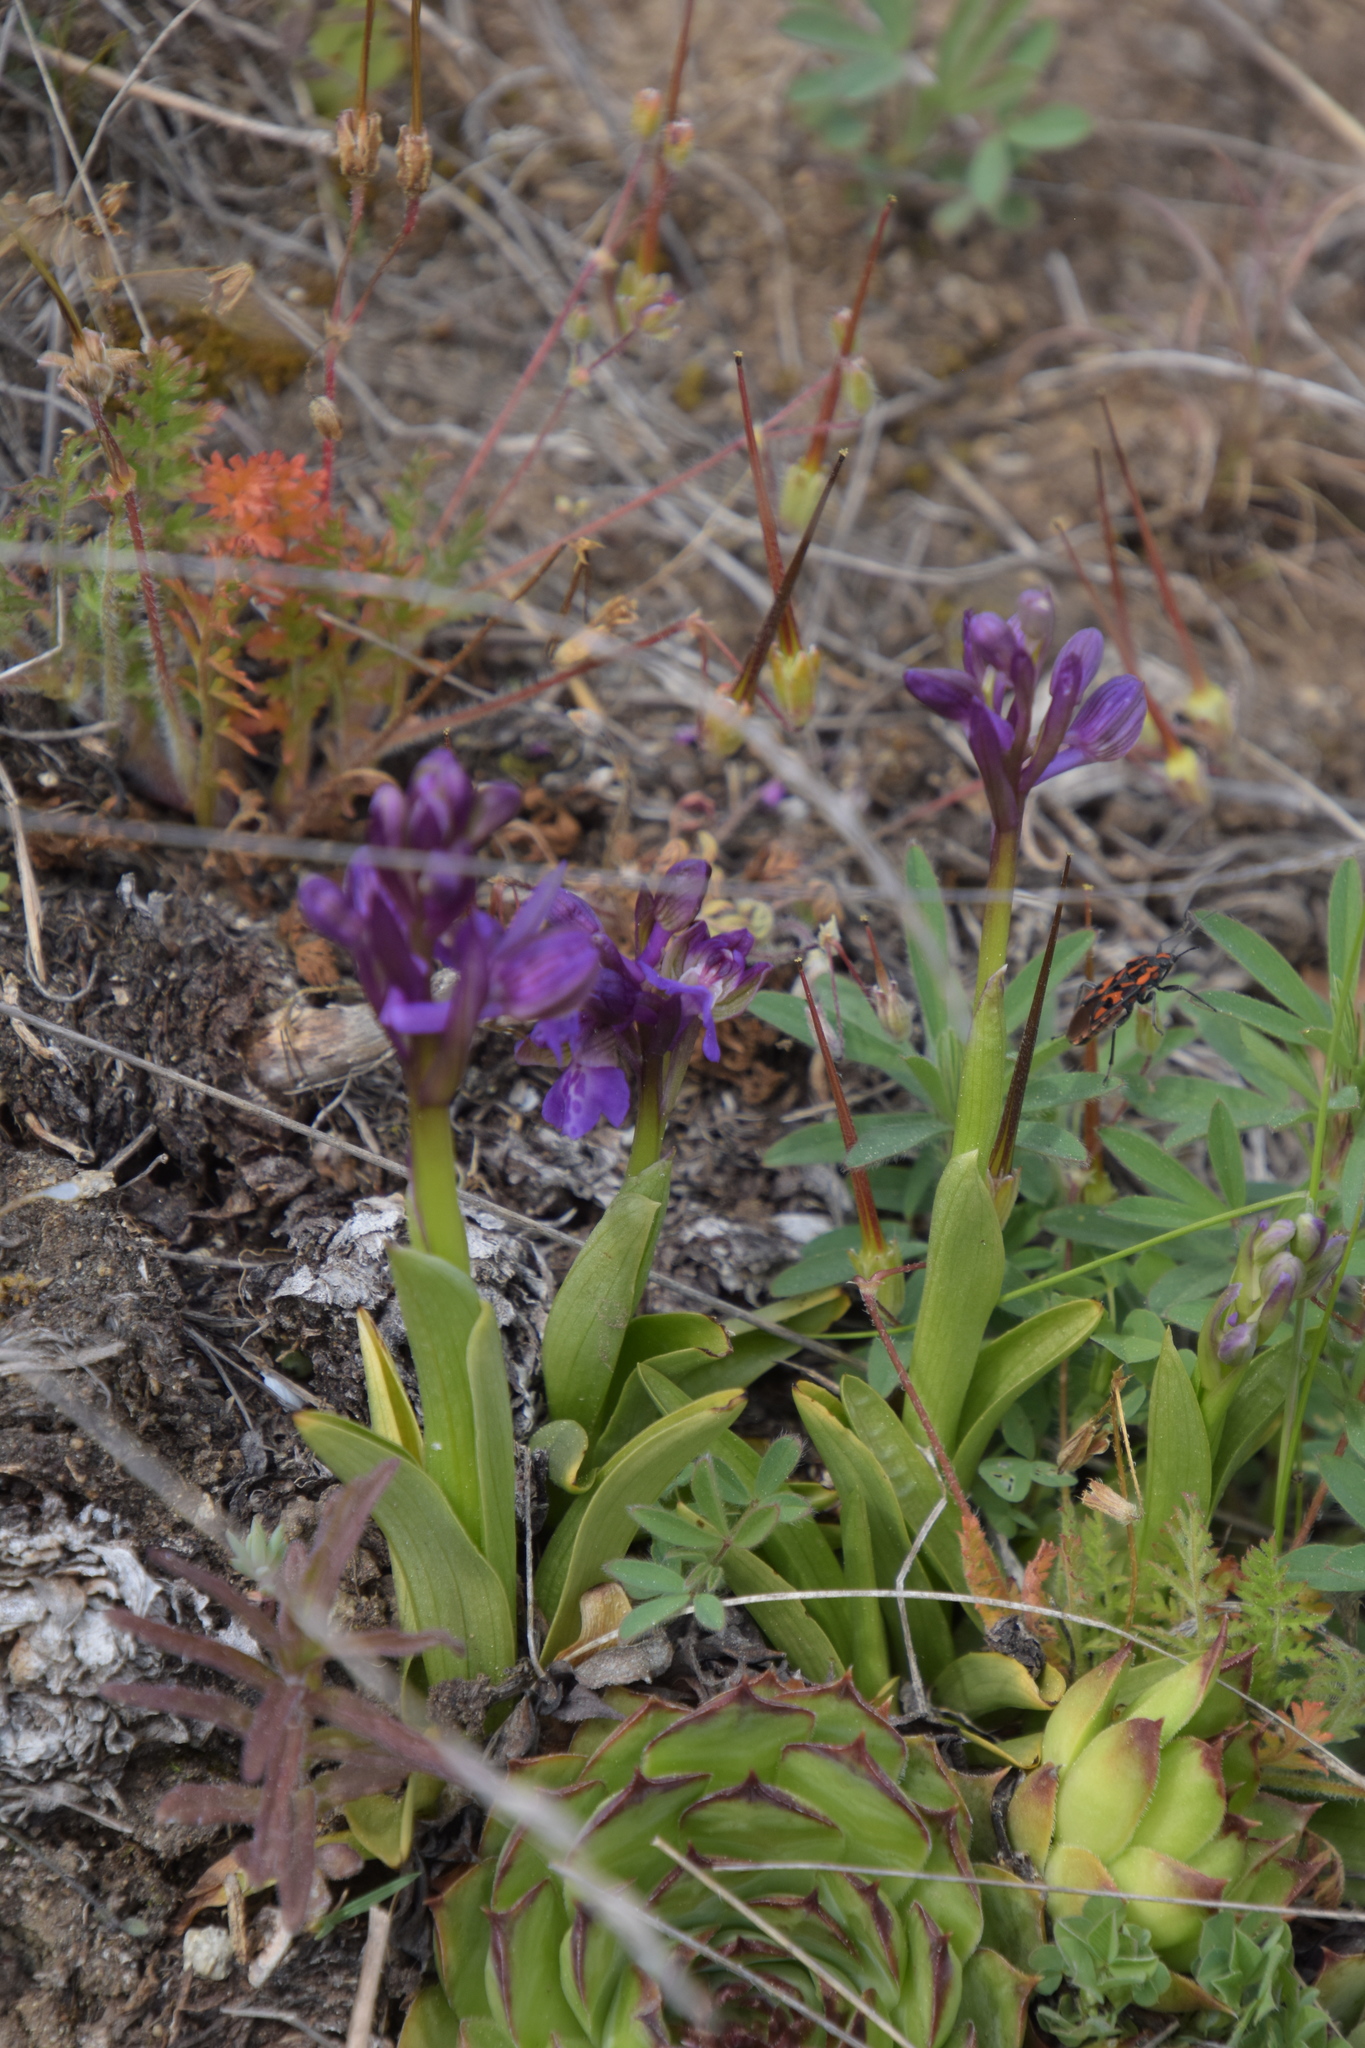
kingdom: Plantae
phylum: Tracheophyta
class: Liliopsida
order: Asparagales
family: Orchidaceae
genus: Anacamptis
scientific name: Anacamptis morio
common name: Green-winged orchid
